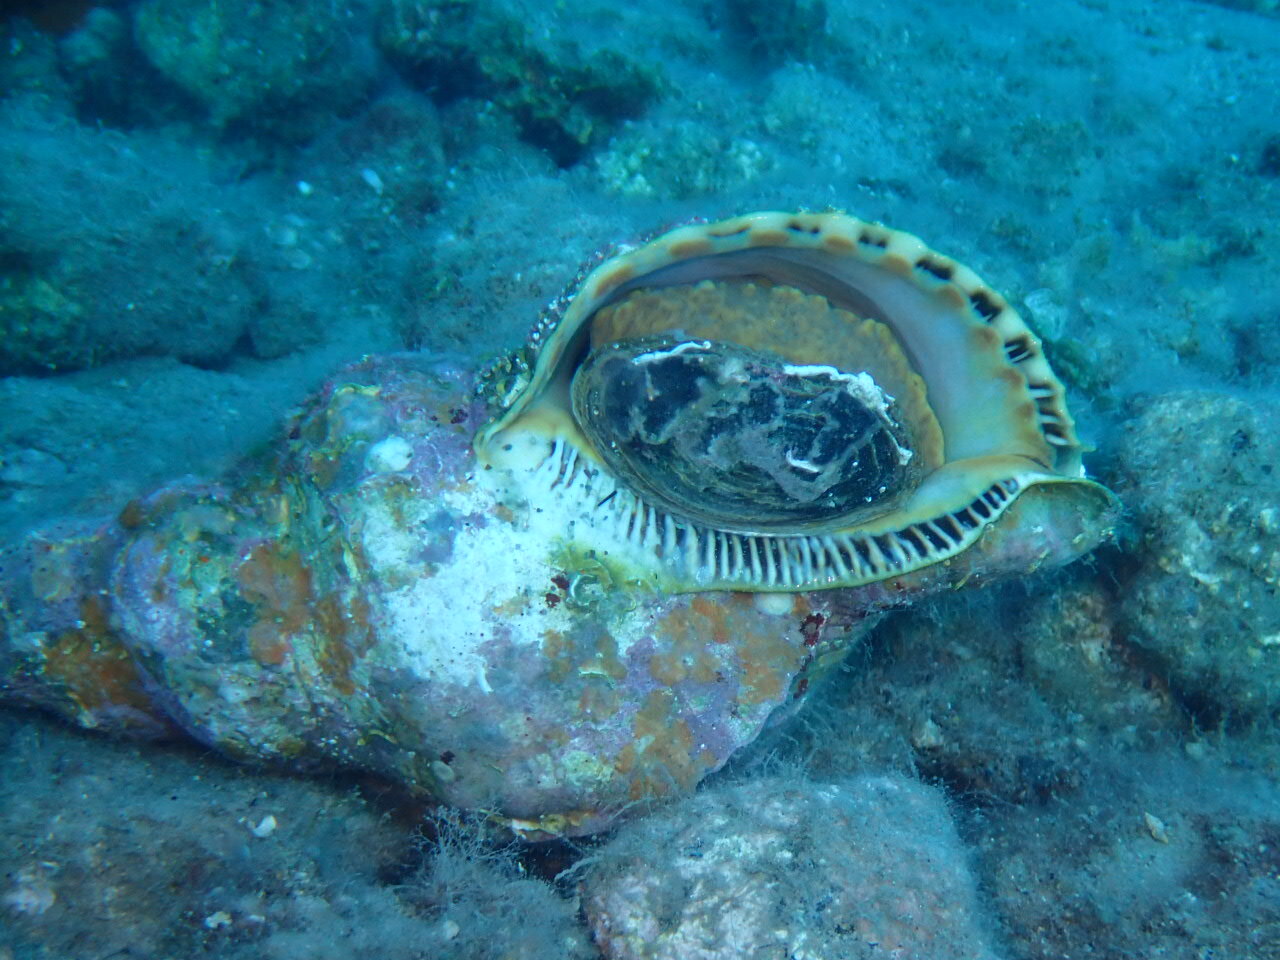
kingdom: Animalia
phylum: Mollusca
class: Gastropoda
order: Littorinimorpha
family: Charoniidae
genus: Charonia
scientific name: Charonia variegata
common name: Atlantic triton
